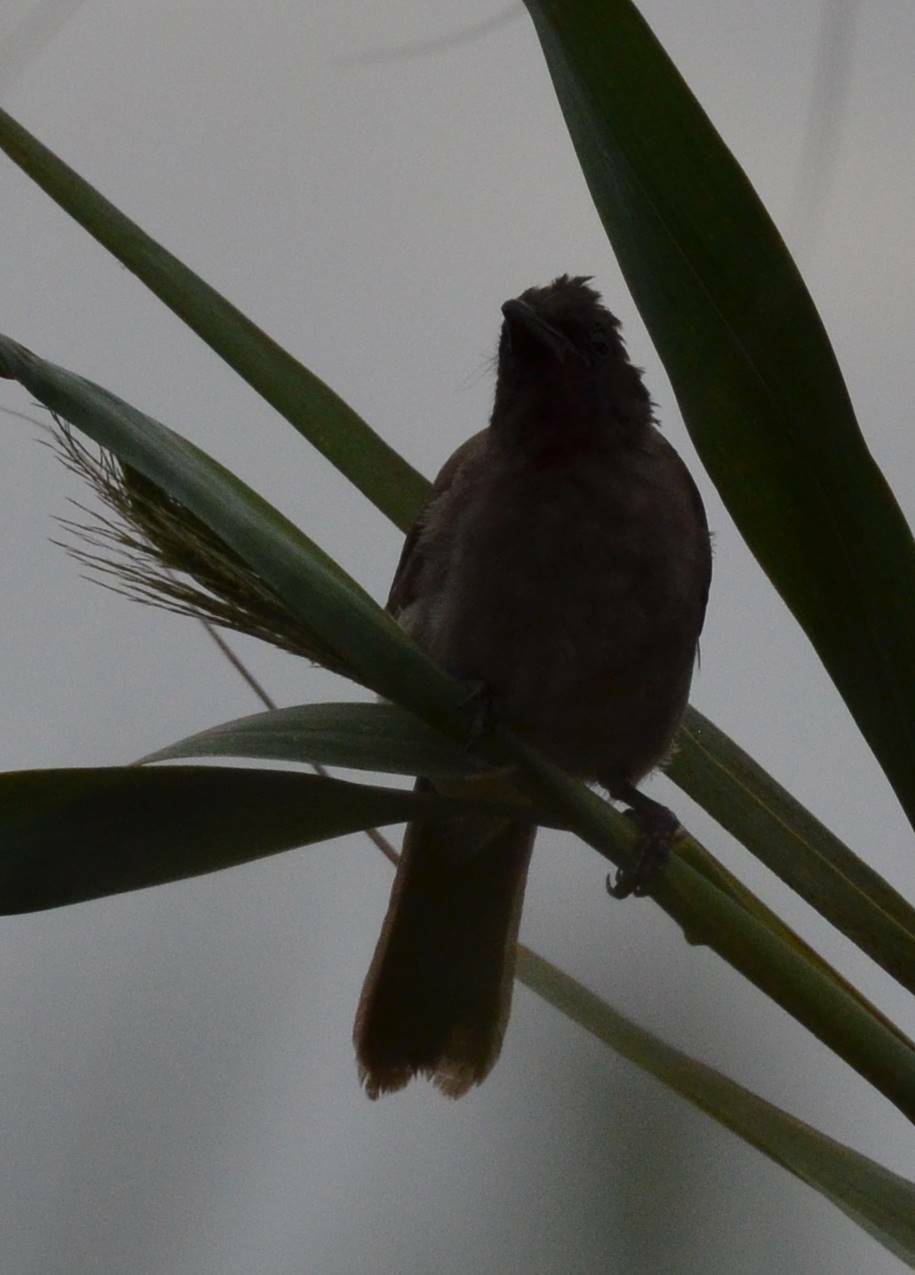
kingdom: Animalia
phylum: Chordata
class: Aves
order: Passeriformes
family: Pycnonotidae
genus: Pycnonotus
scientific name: Pycnonotus barbatus
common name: Common bulbul
